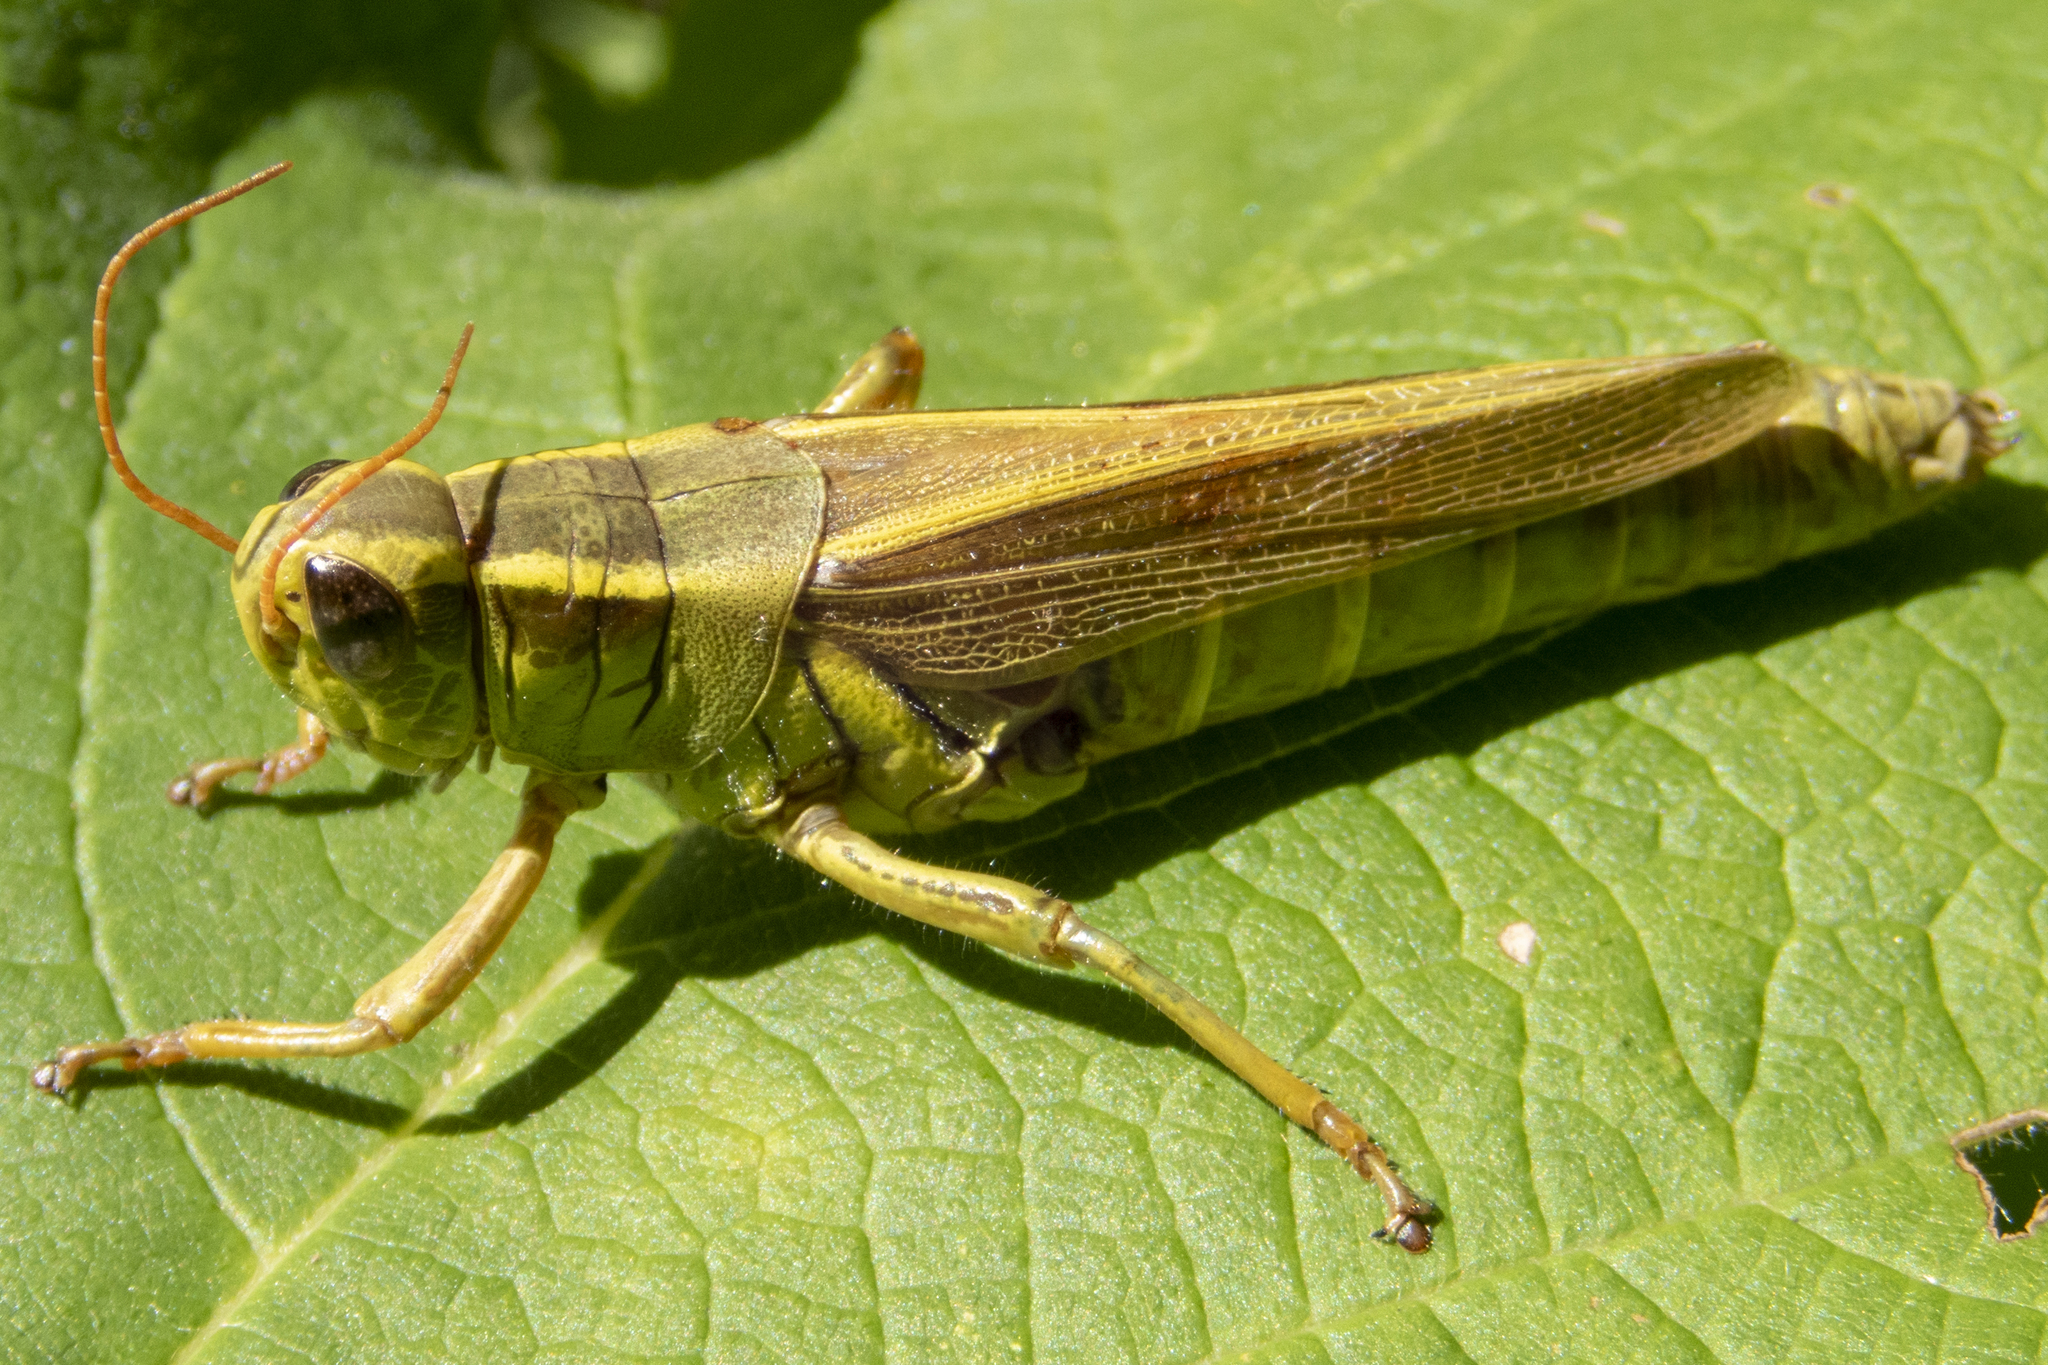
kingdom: Animalia
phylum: Arthropoda
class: Insecta
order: Orthoptera
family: Acrididae
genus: Melanoplus
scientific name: Melanoplus bivittatus
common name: Two-striped grasshopper
